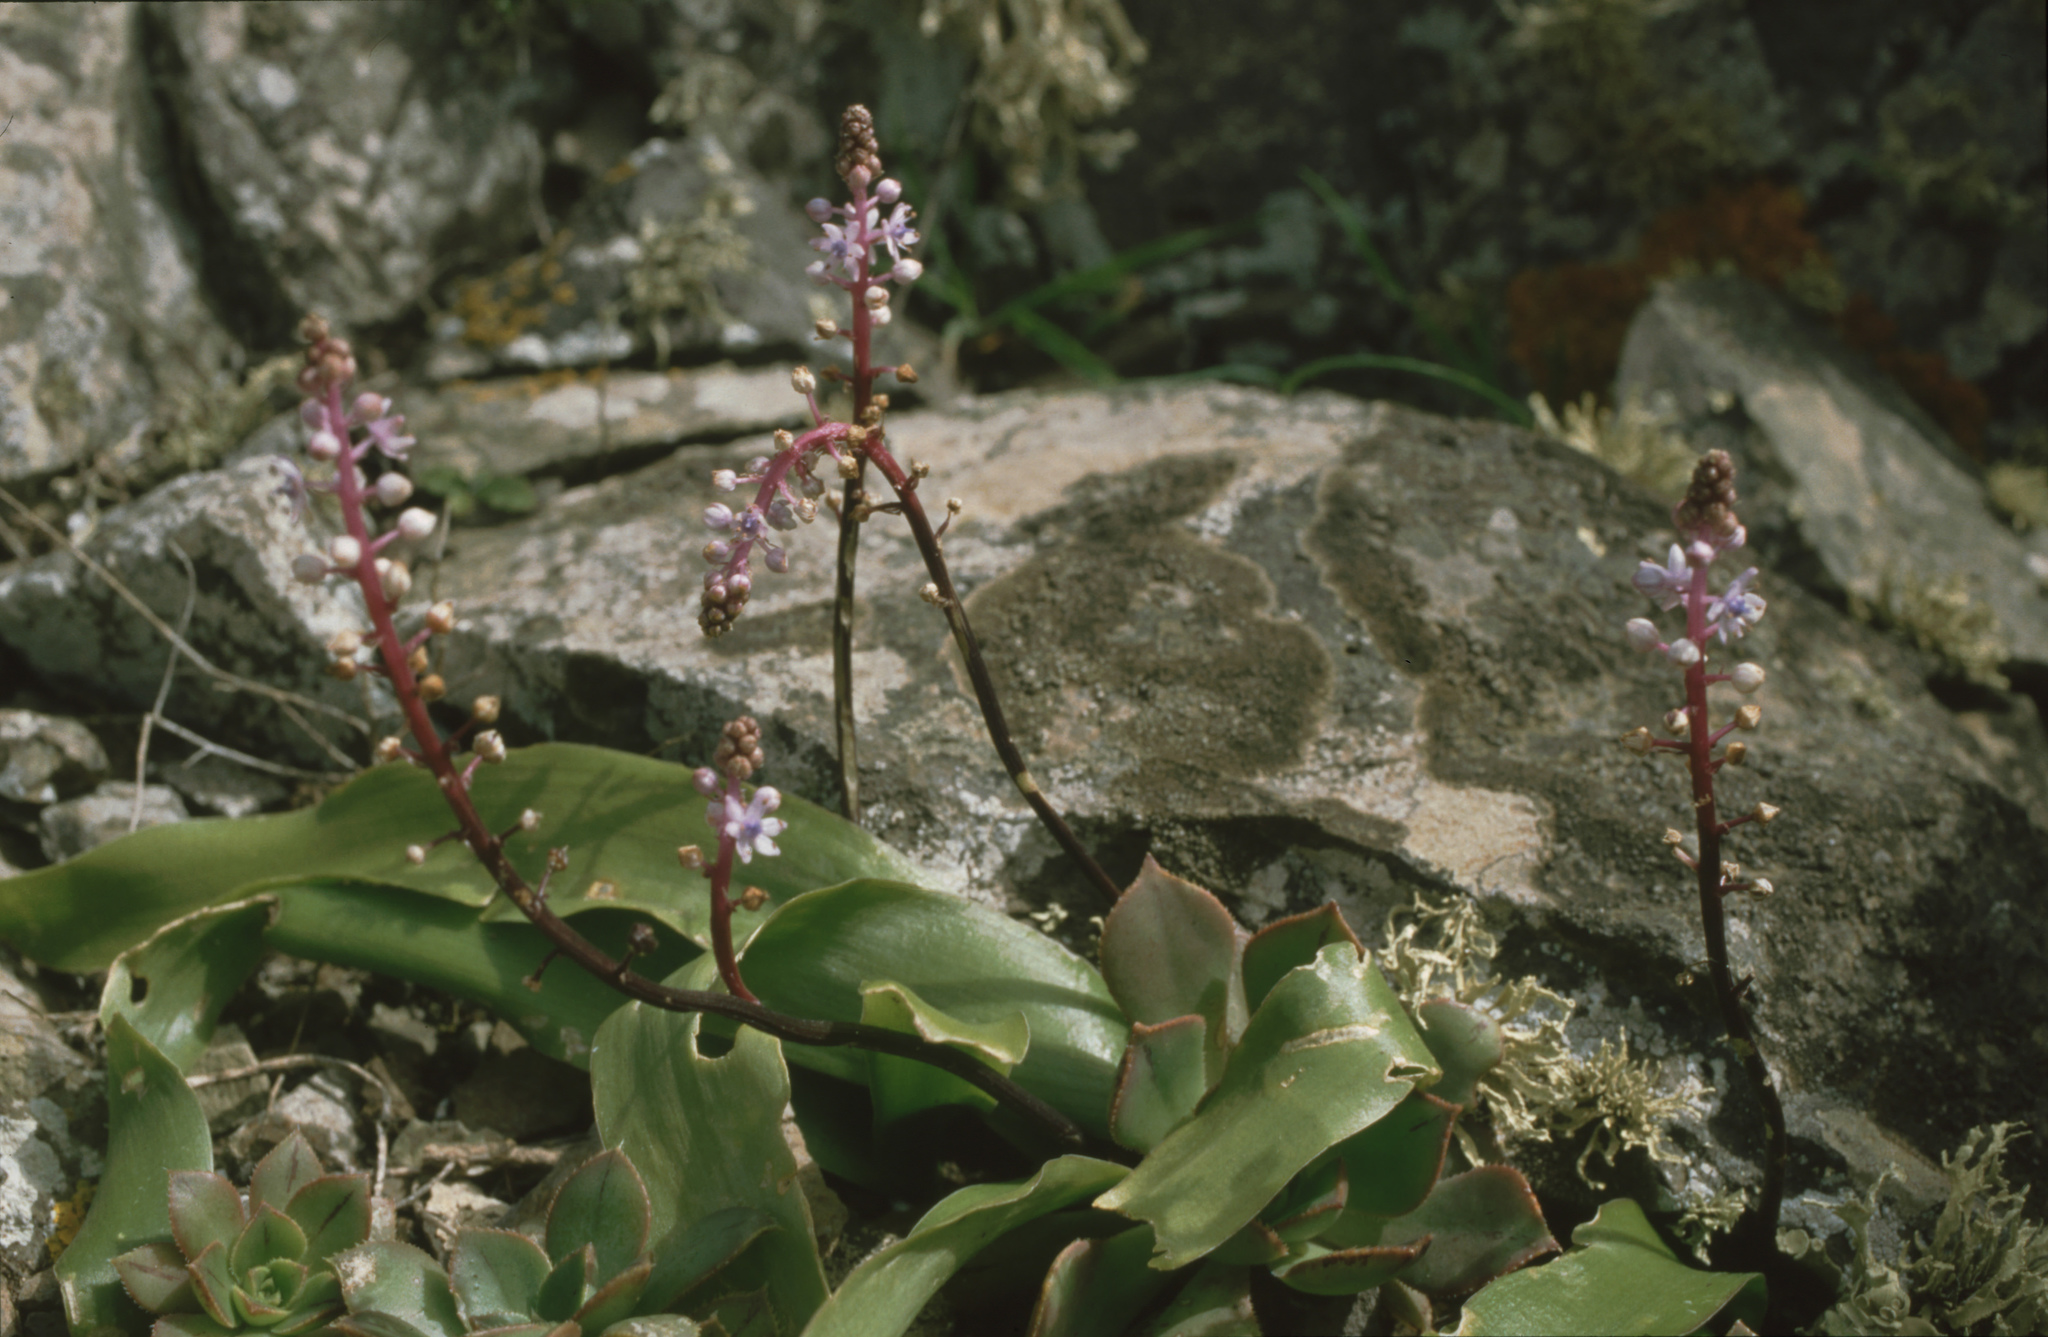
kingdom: Plantae
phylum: Tracheophyta
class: Liliopsida
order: Asparagales
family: Asparagaceae
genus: Scilla
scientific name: Scilla haemorrhoidalis
